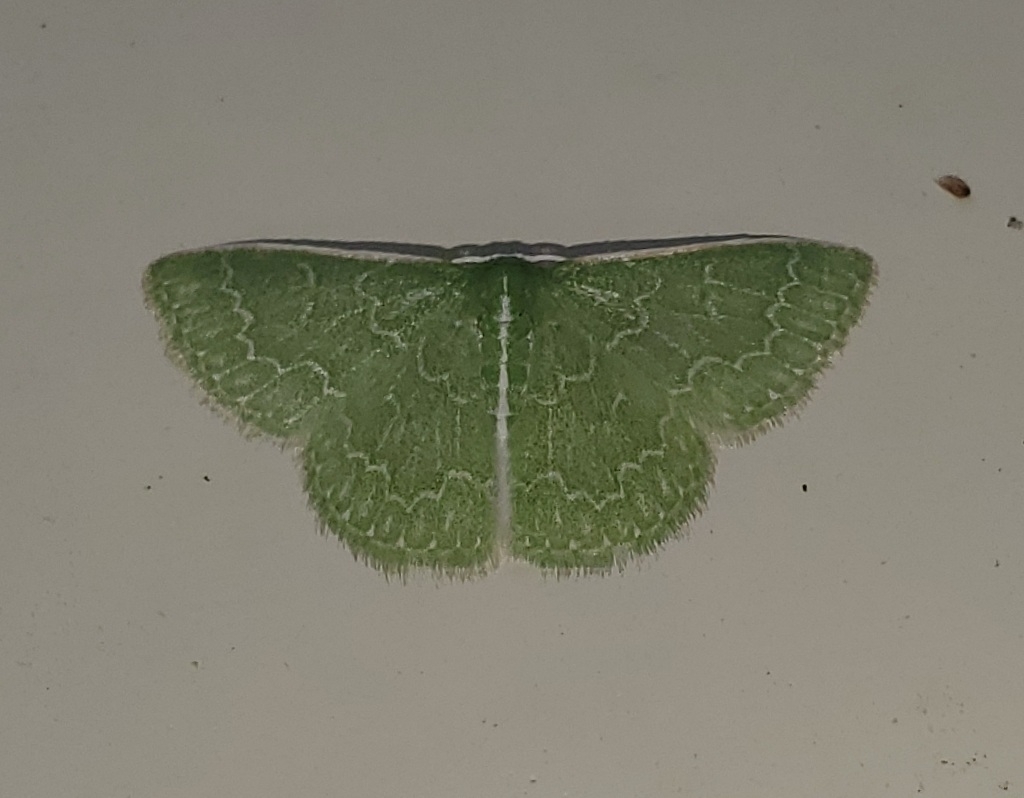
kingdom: Animalia
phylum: Arthropoda
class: Insecta
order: Lepidoptera
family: Geometridae
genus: Synchlora
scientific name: Synchlora frondaria
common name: Southern emerald
